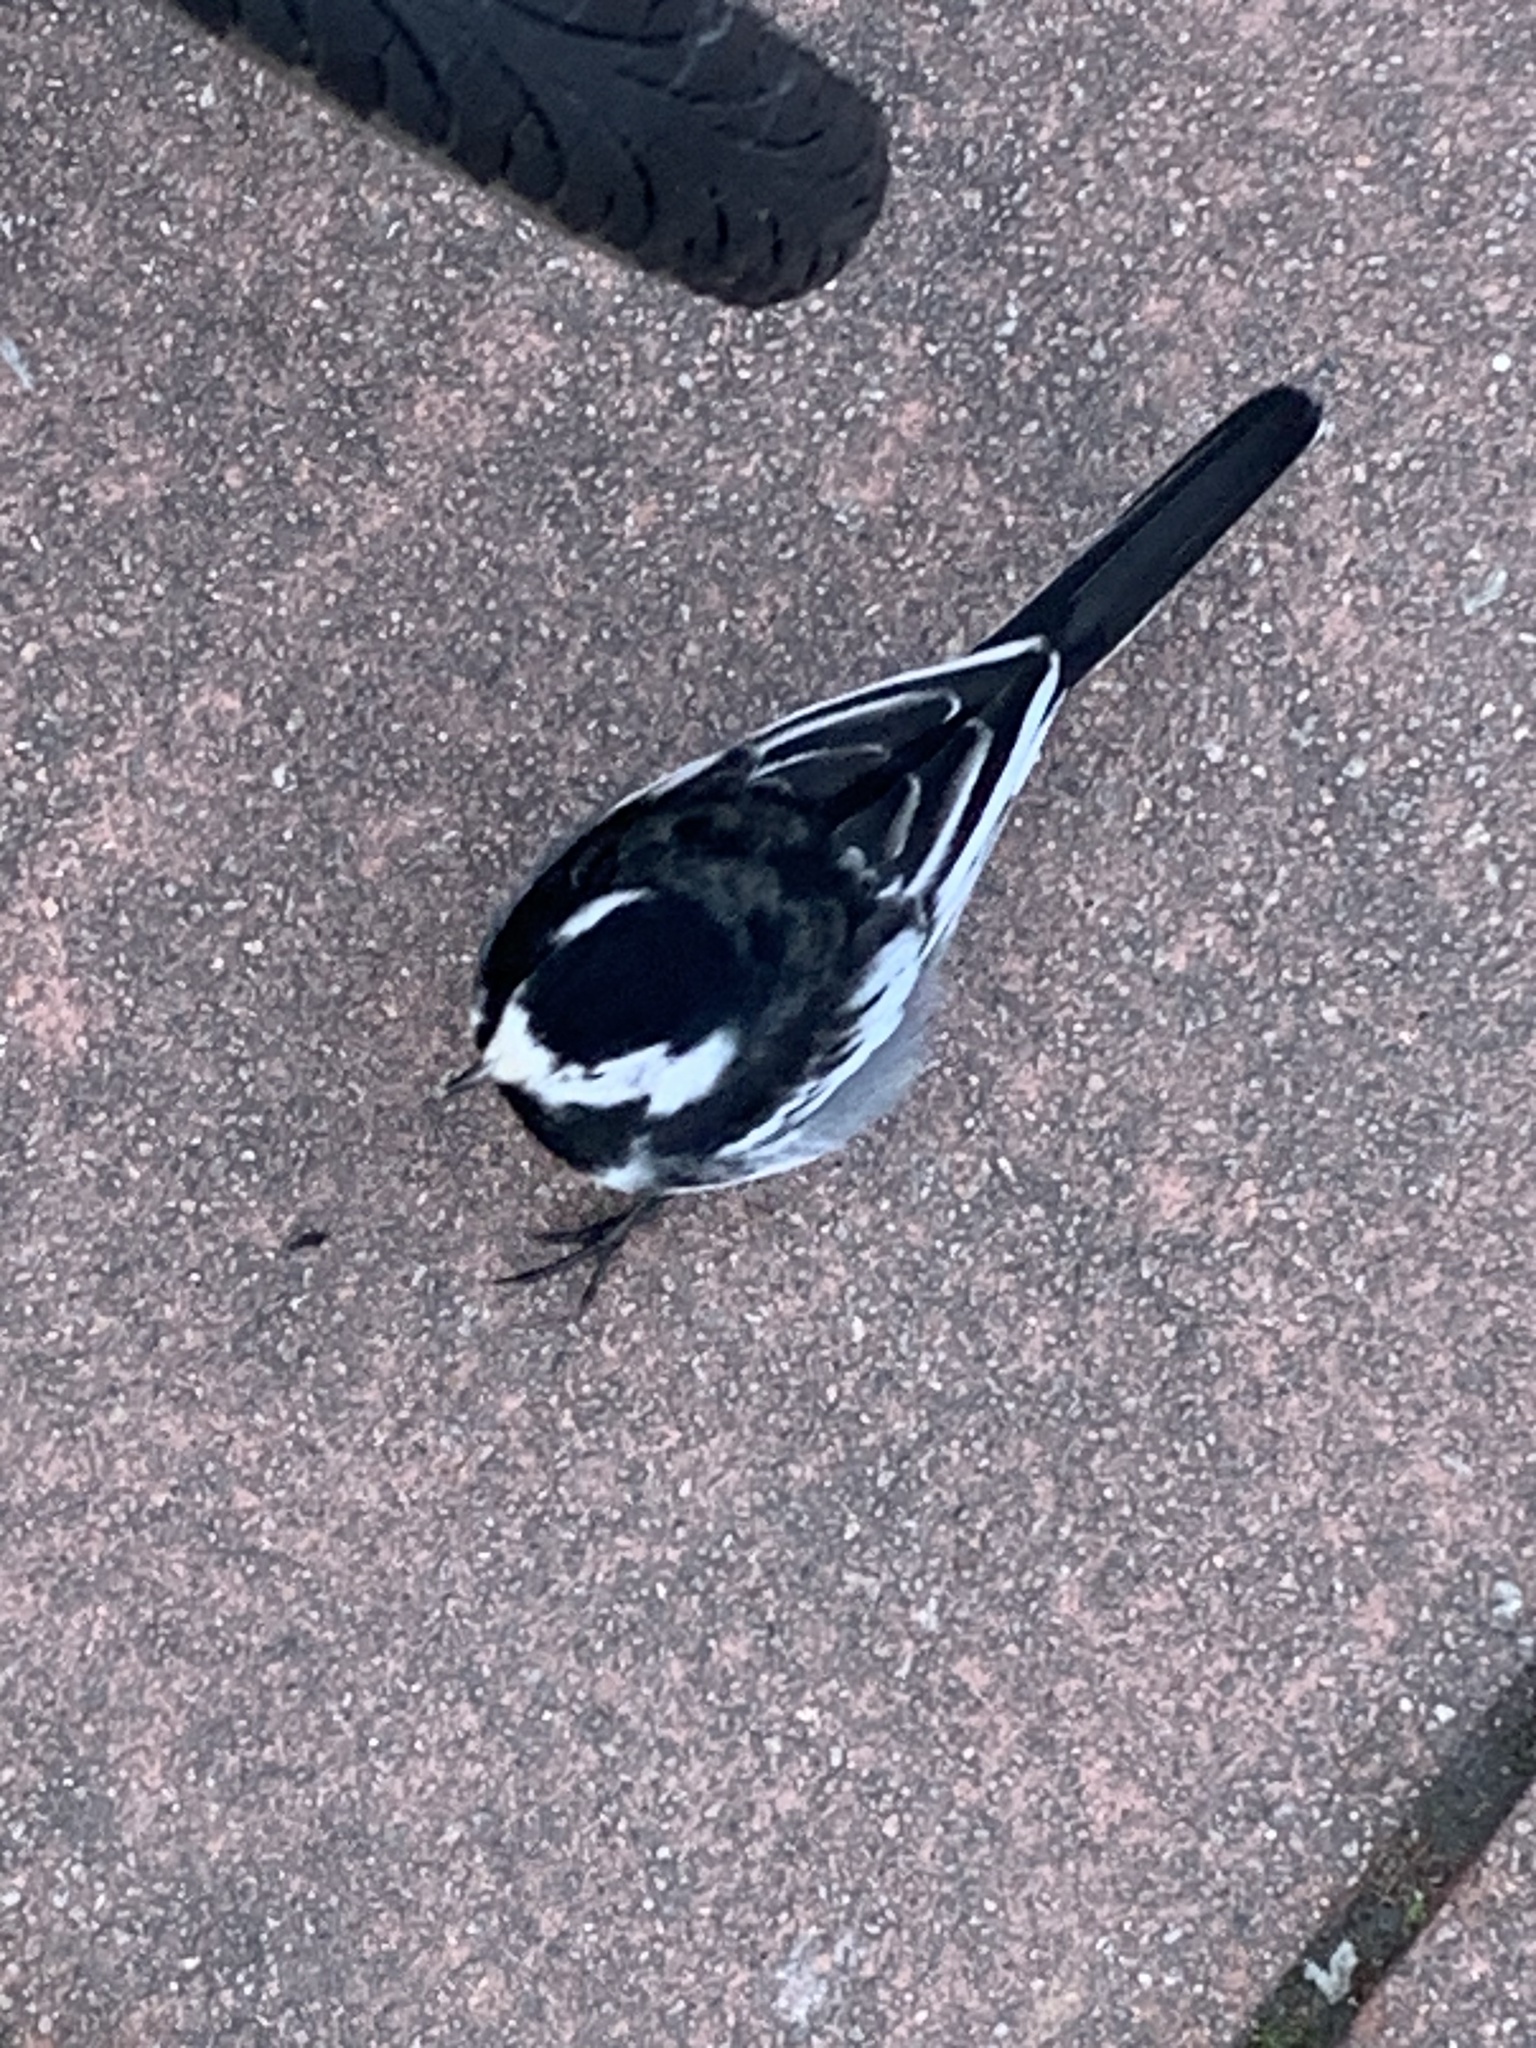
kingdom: Animalia
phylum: Chordata
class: Aves
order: Passeriformes
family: Motacillidae
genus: Motacilla
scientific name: Motacilla alba
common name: White wagtail
